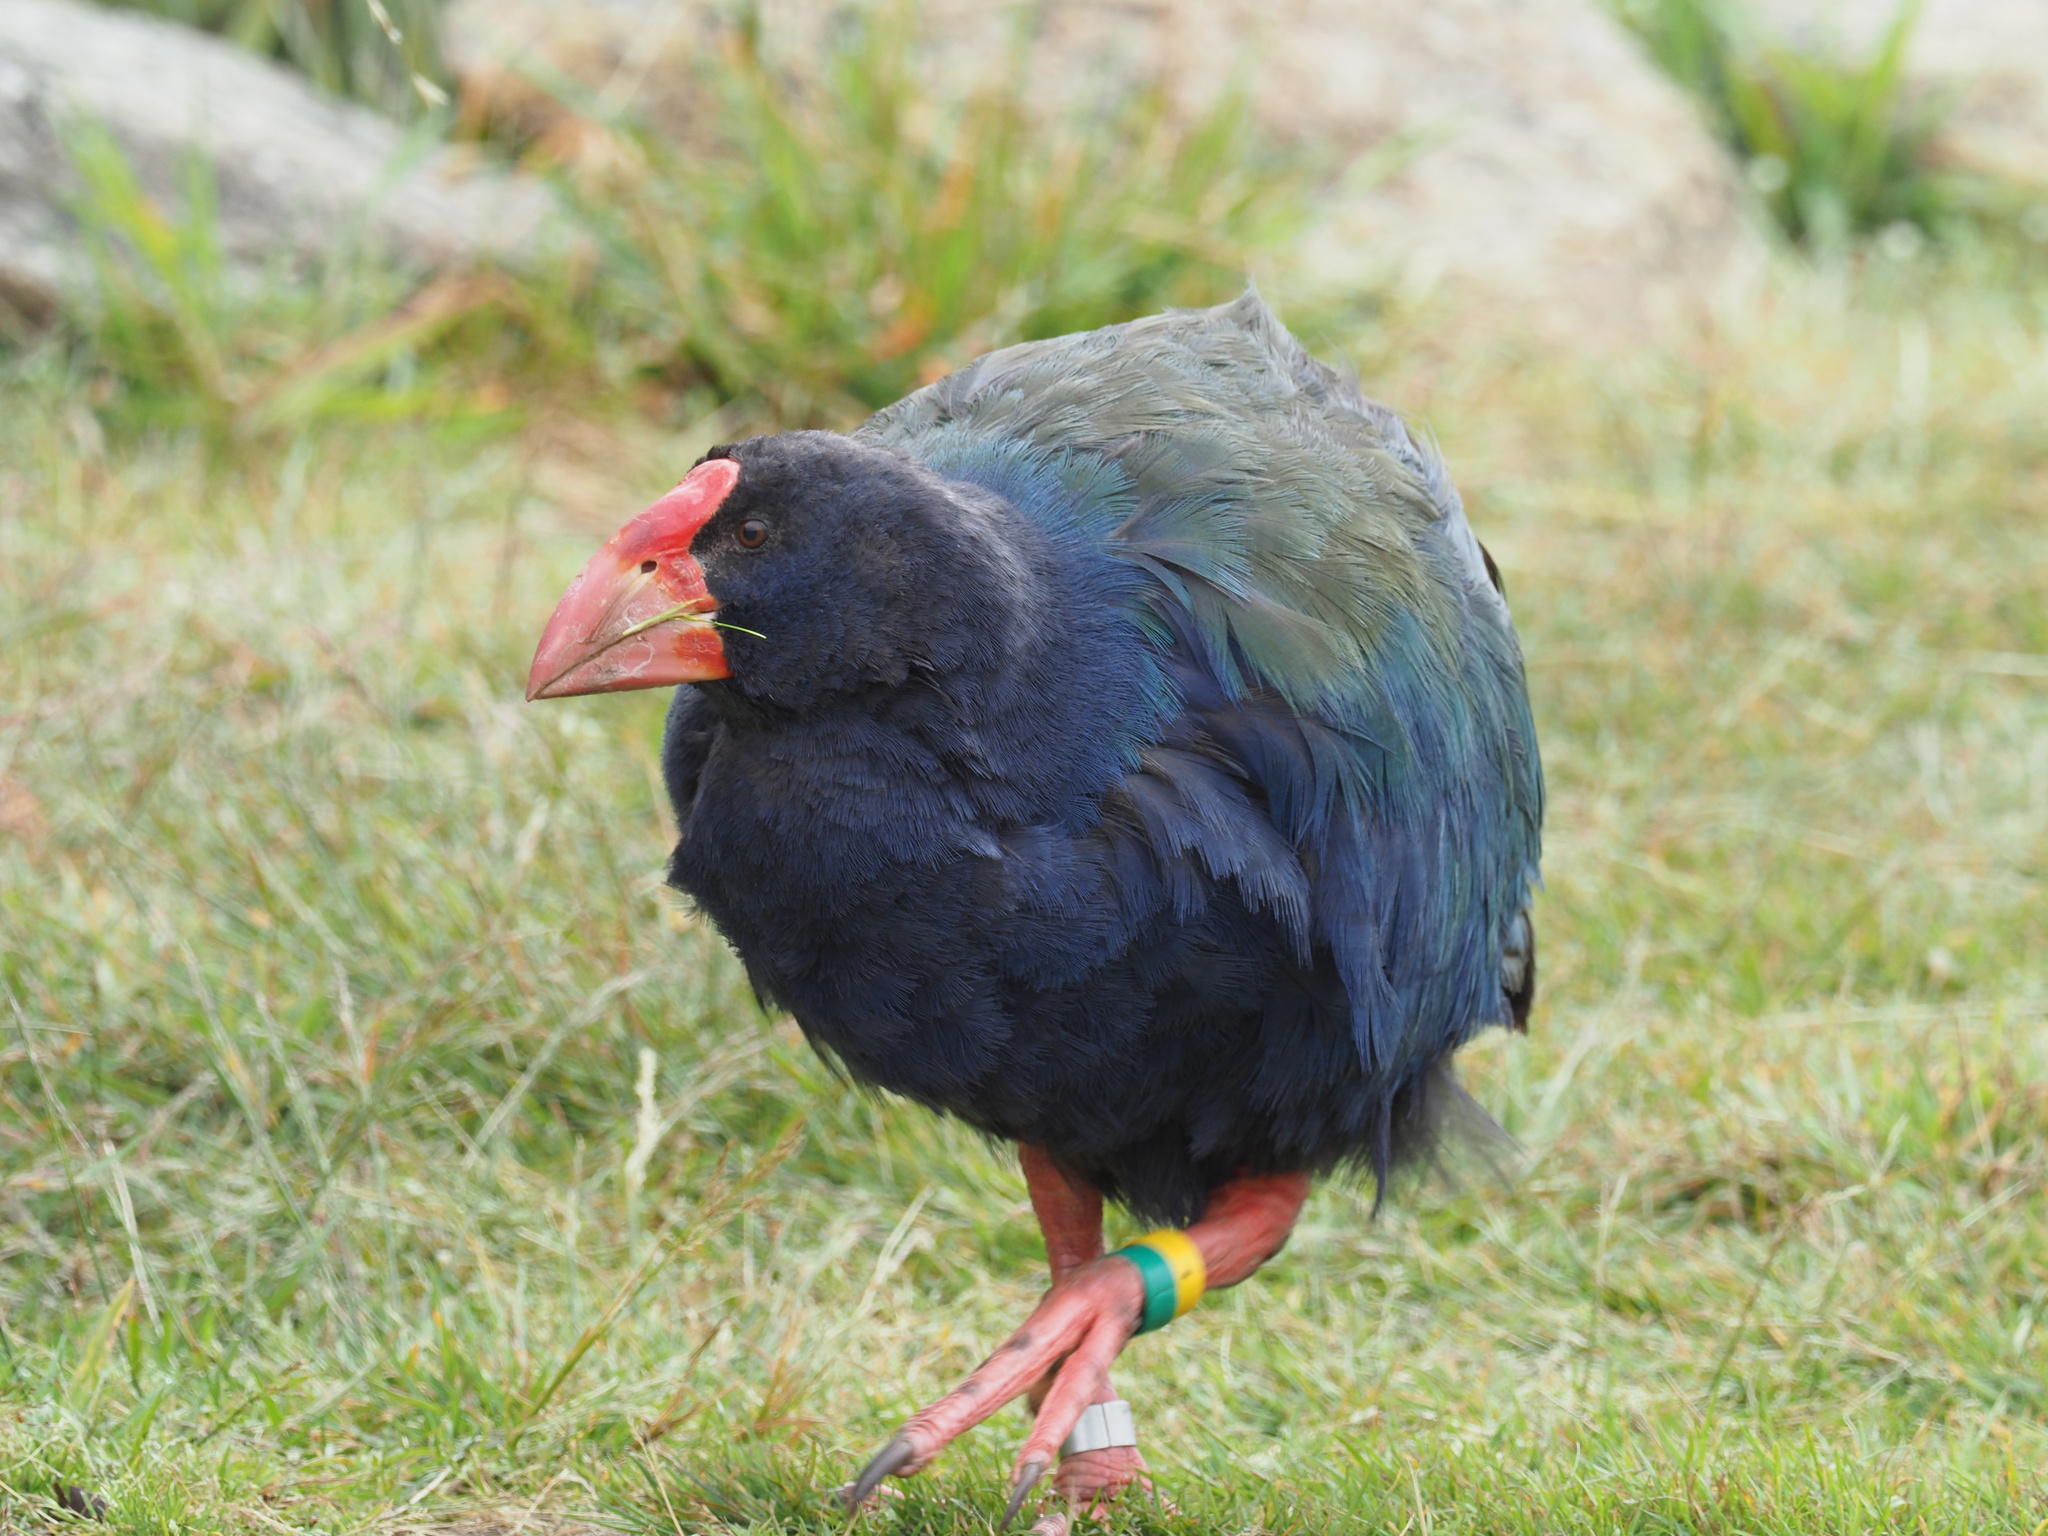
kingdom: Animalia
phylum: Chordata
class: Aves
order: Gruiformes
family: Rallidae
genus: Porphyrio
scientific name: Porphyrio hochstetteri
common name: South island takahe
